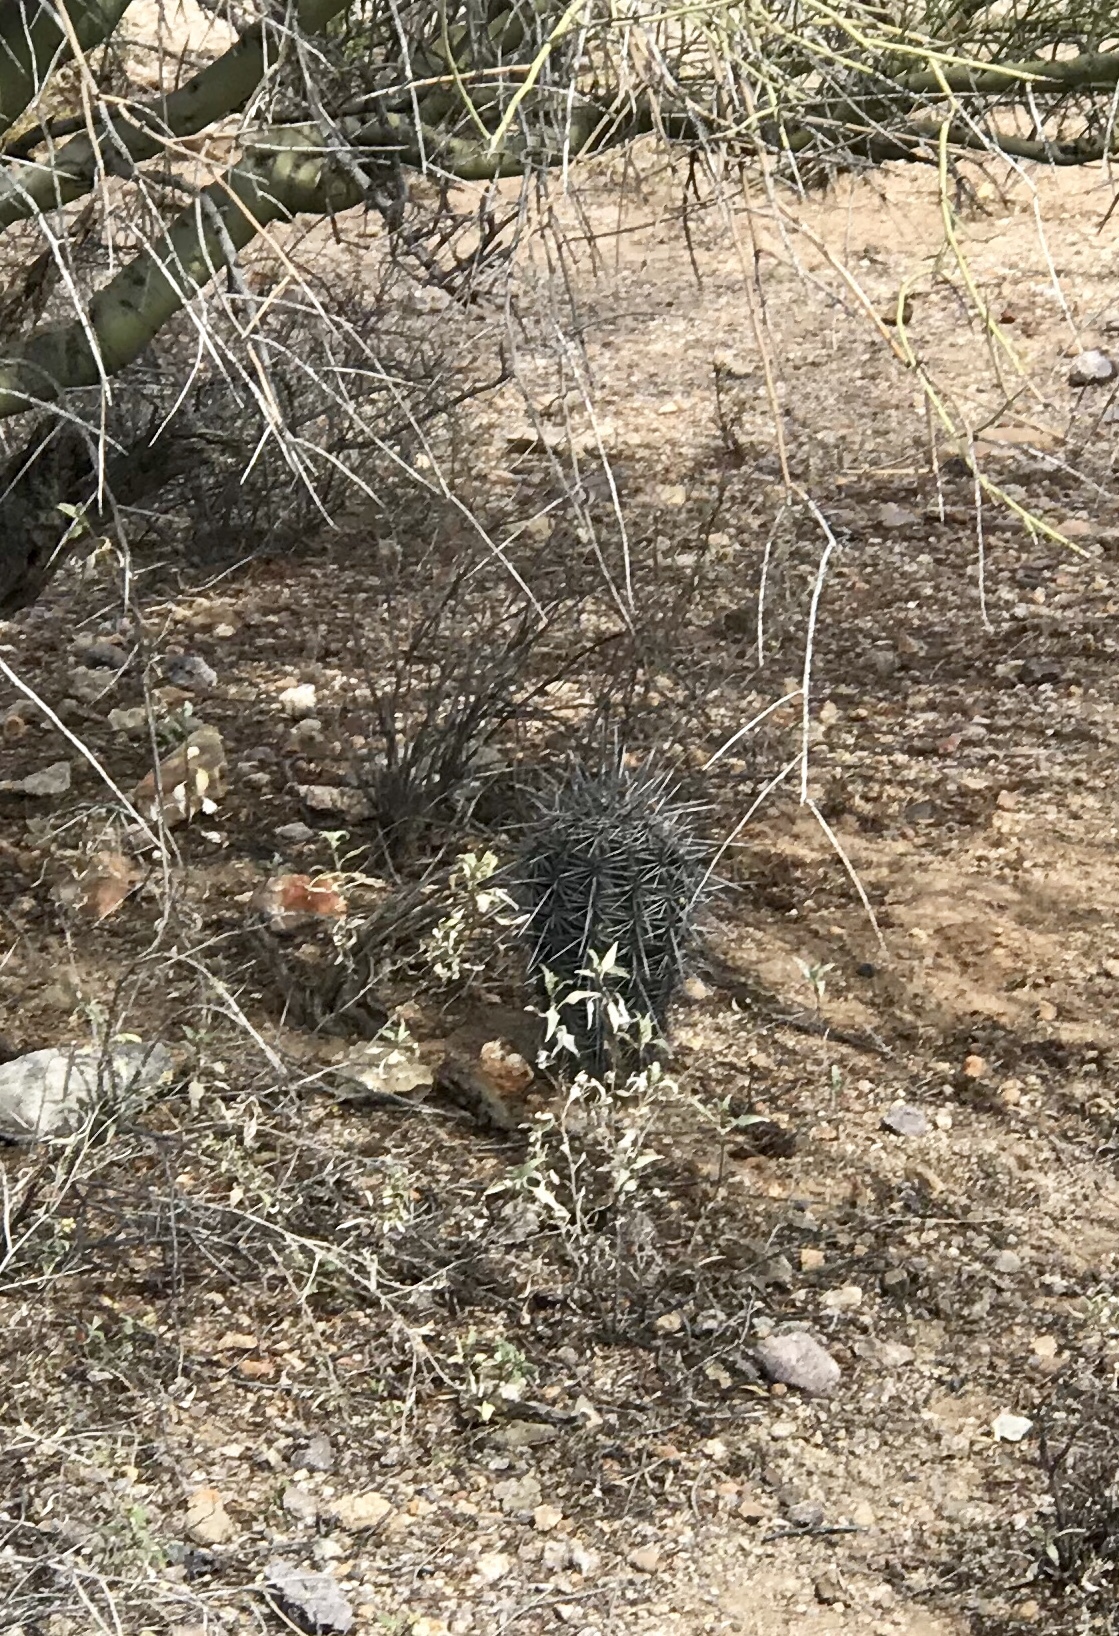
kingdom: Plantae
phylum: Tracheophyta
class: Magnoliopsida
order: Caryophyllales
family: Cactaceae
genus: Carnegiea
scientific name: Carnegiea gigantea
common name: Saguaro
